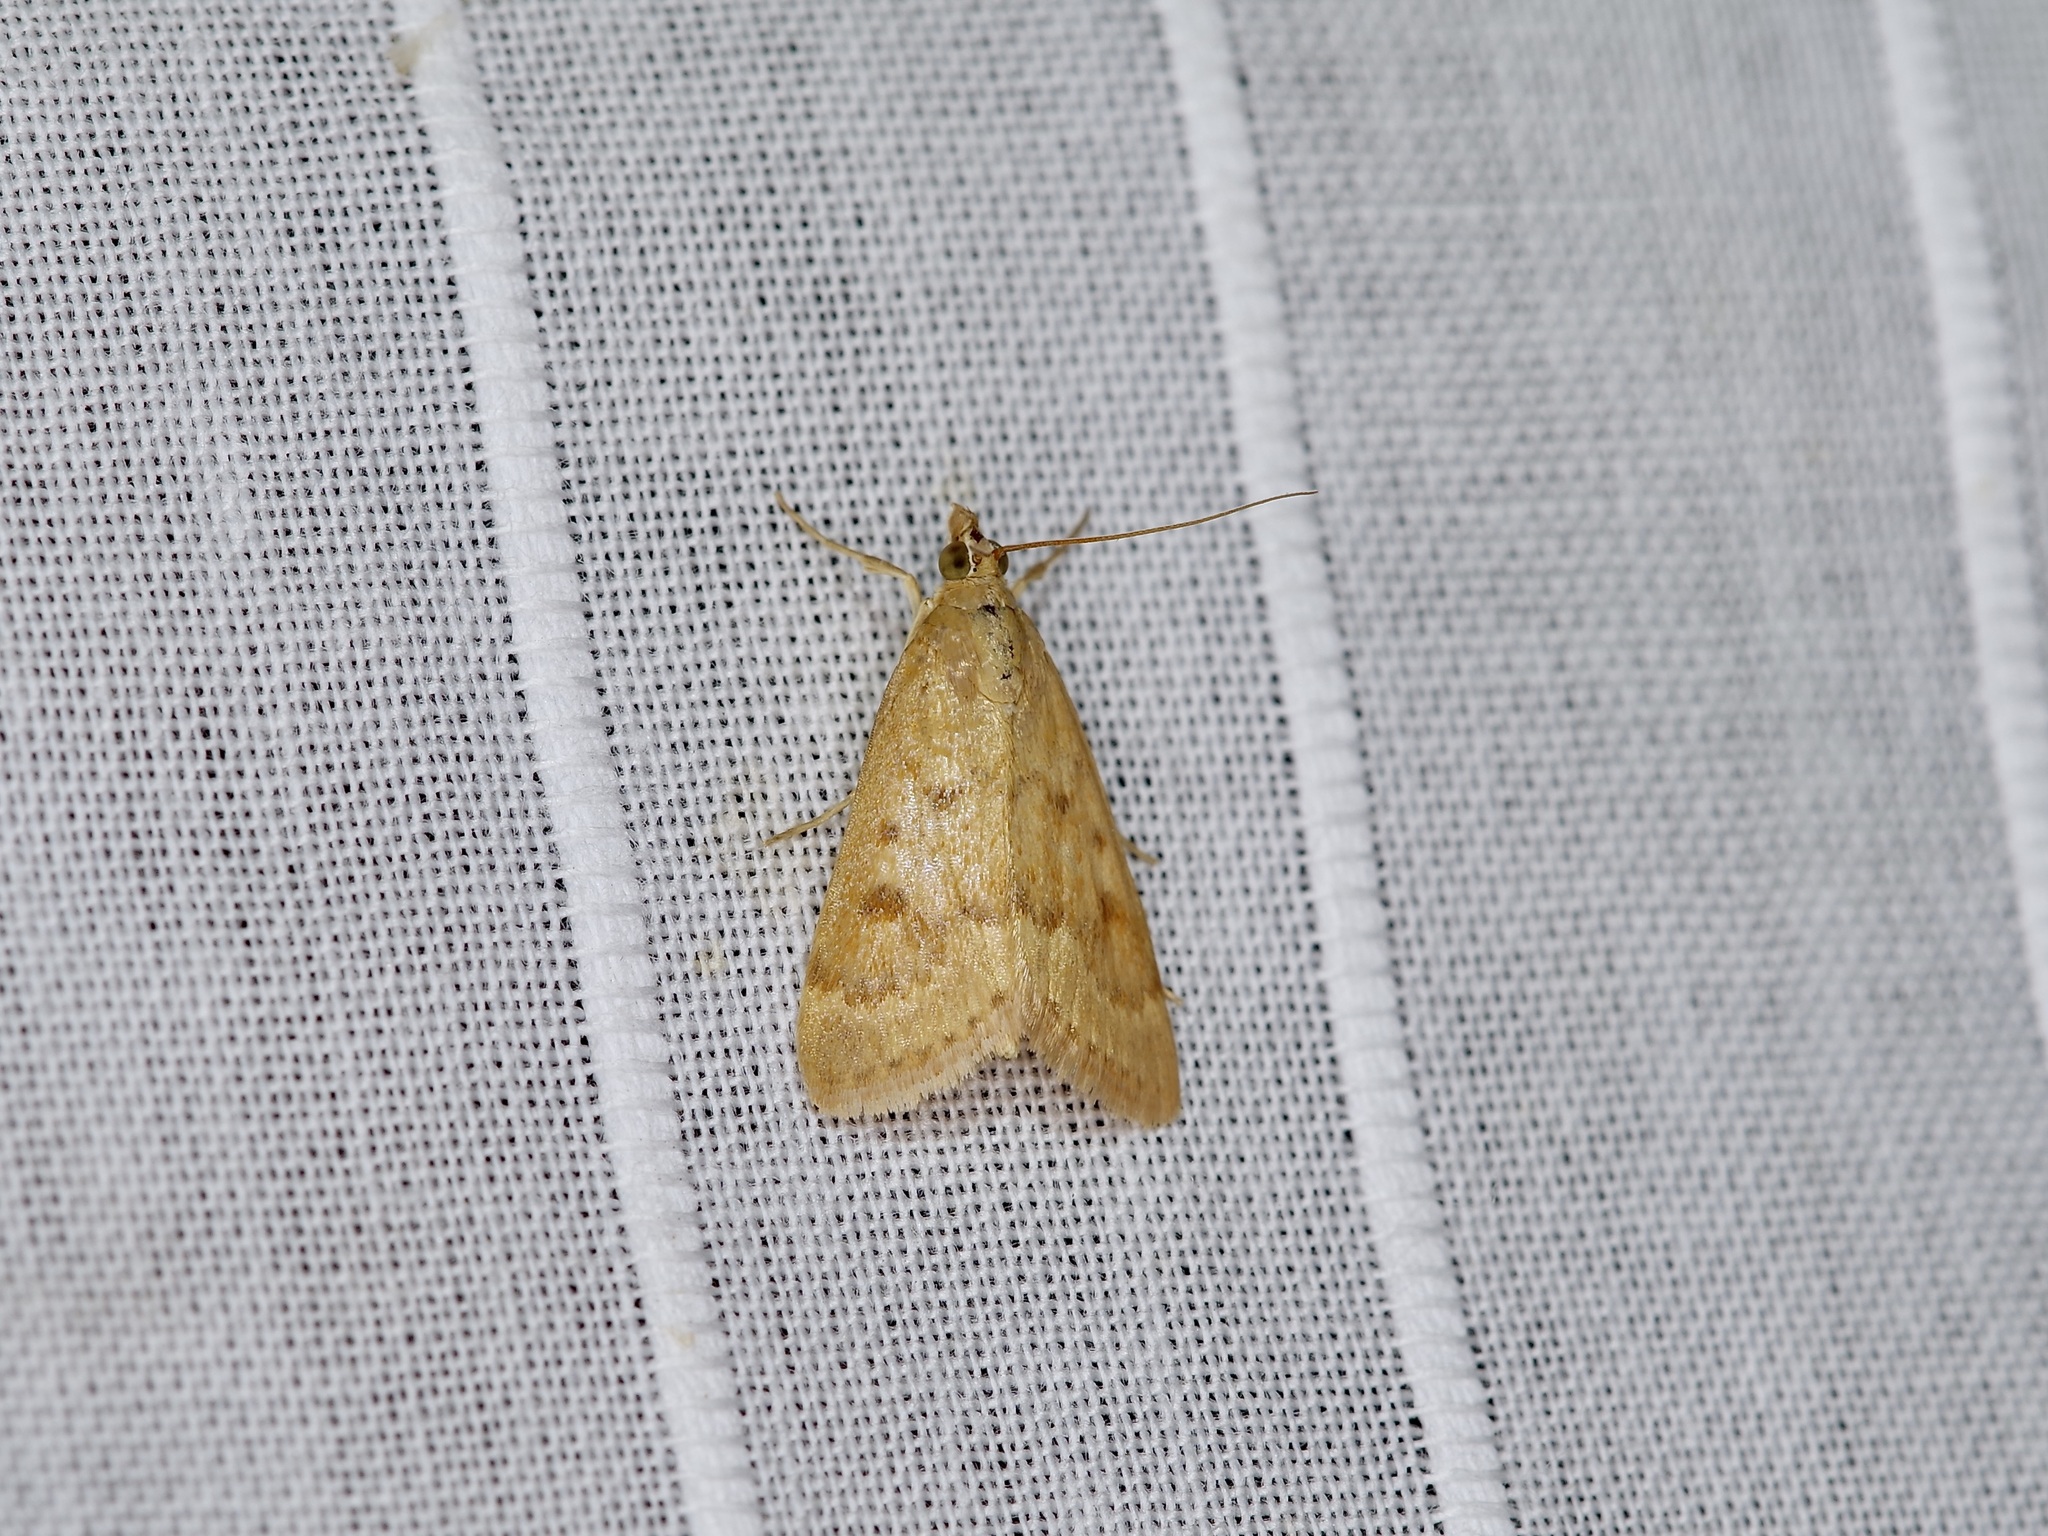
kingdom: Animalia
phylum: Arthropoda
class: Insecta
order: Lepidoptera
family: Crambidae
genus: Achyra
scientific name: Achyra rantalis
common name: Garden webworm
